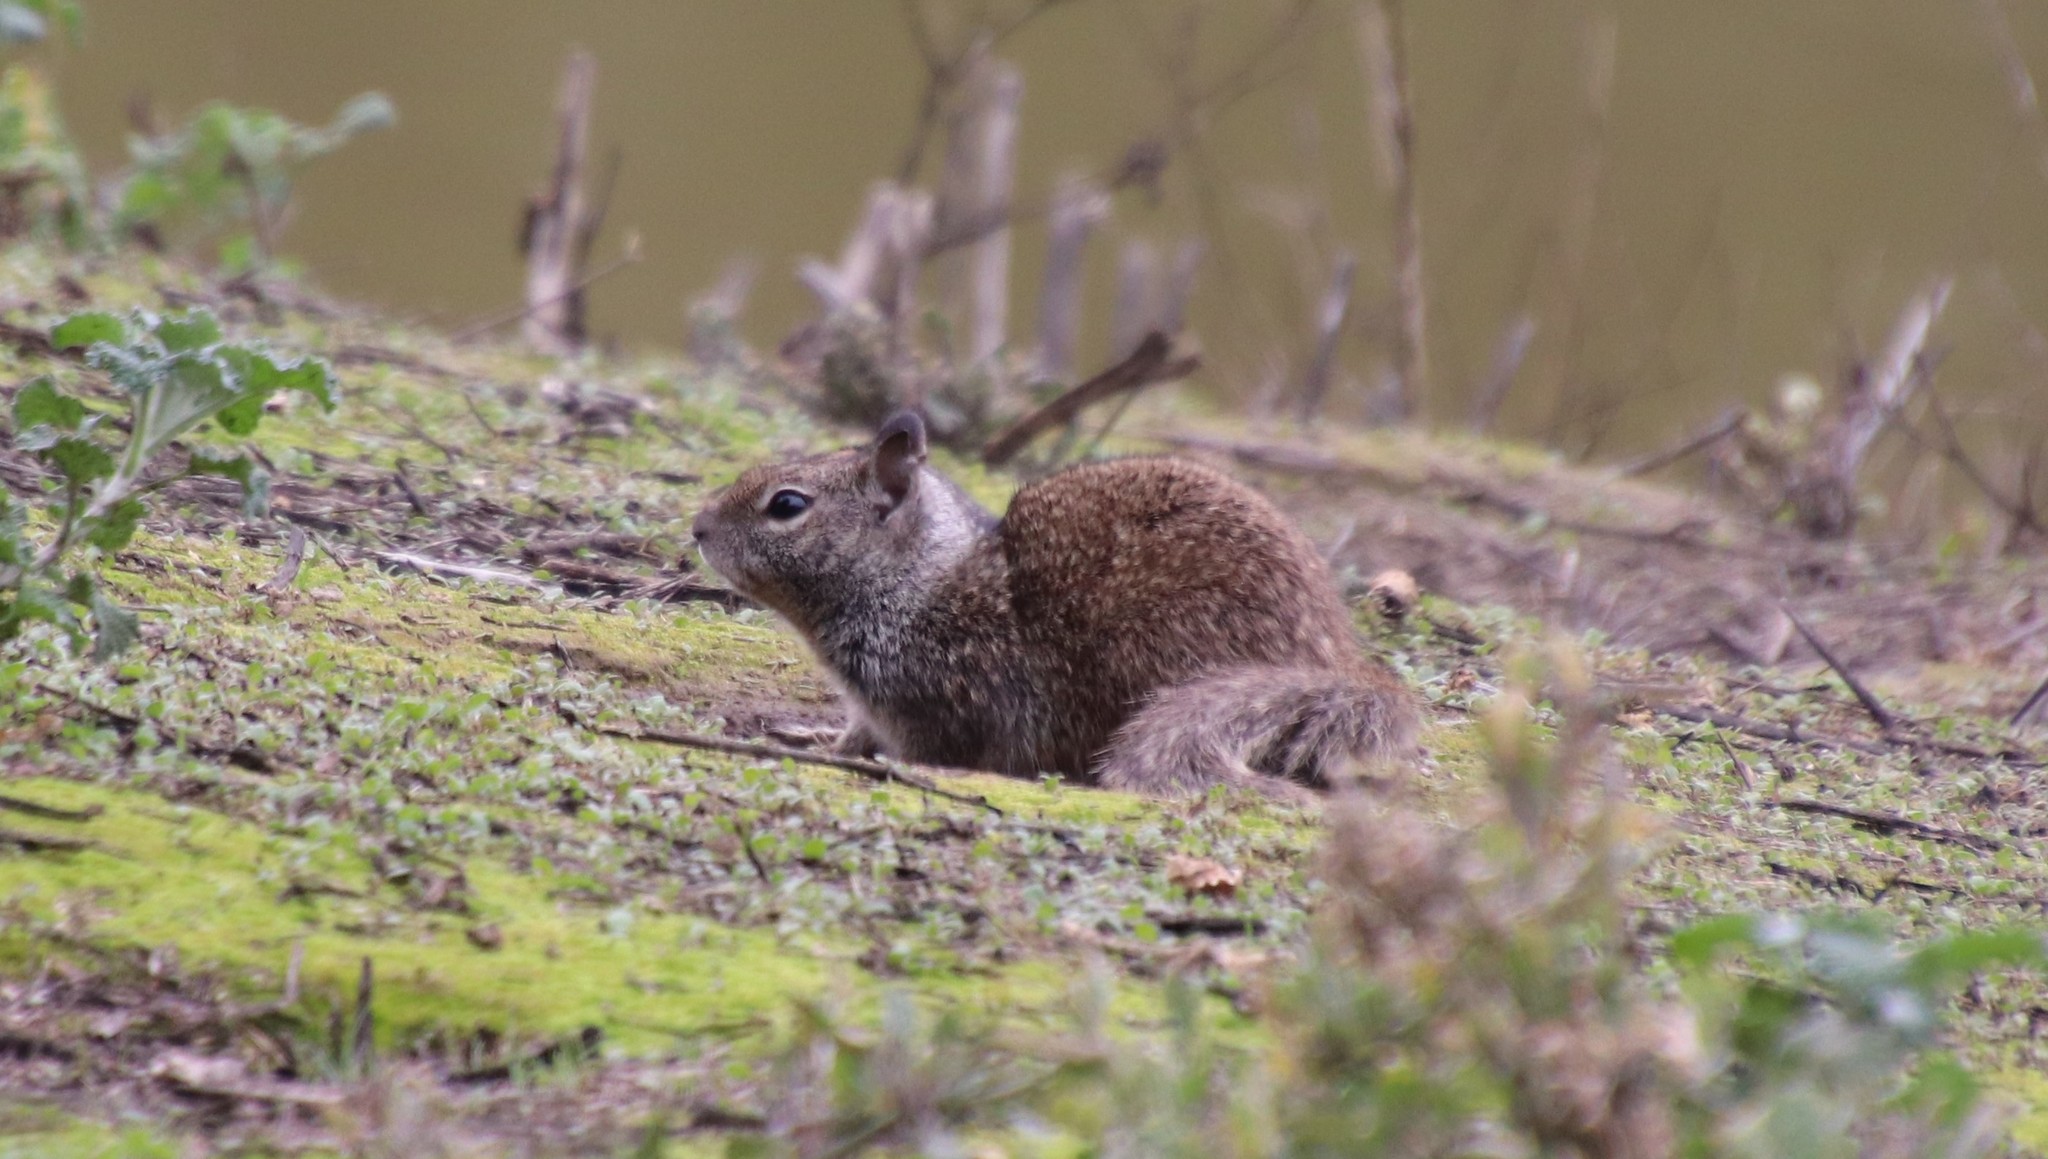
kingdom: Animalia
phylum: Chordata
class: Mammalia
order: Rodentia
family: Sciuridae
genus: Otospermophilus
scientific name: Otospermophilus beecheyi
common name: California ground squirrel
